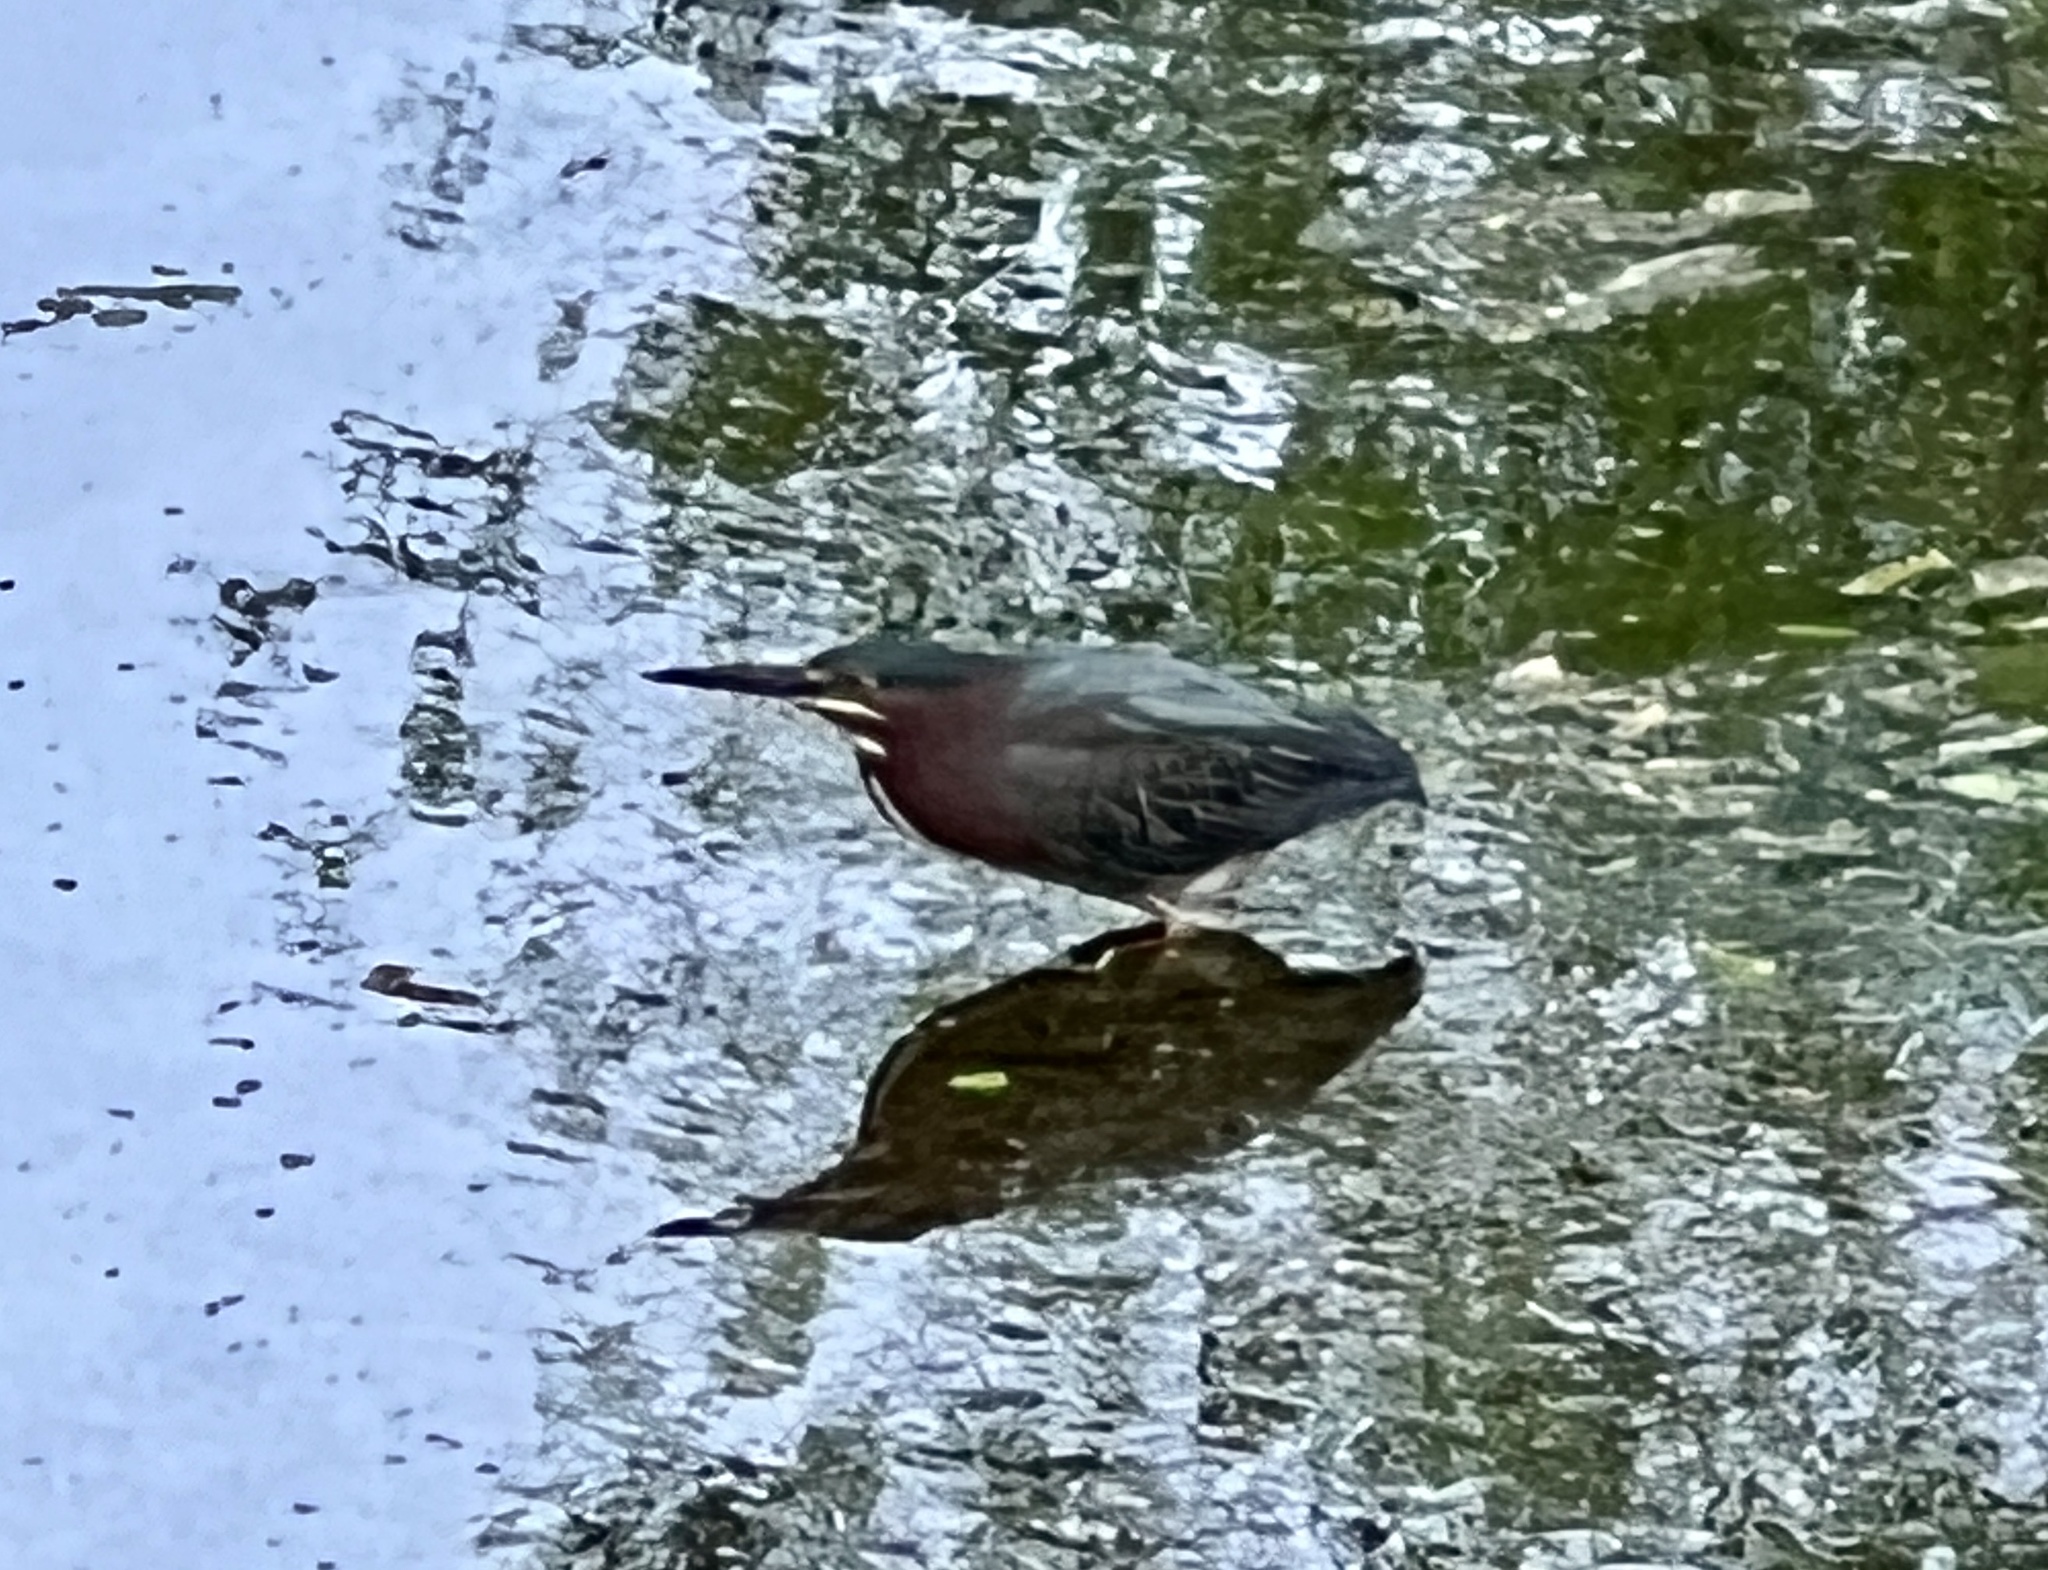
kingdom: Animalia
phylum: Chordata
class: Aves
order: Pelecaniformes
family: Ardeidae
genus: Butorides
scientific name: Butorides virescens
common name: Green heron
